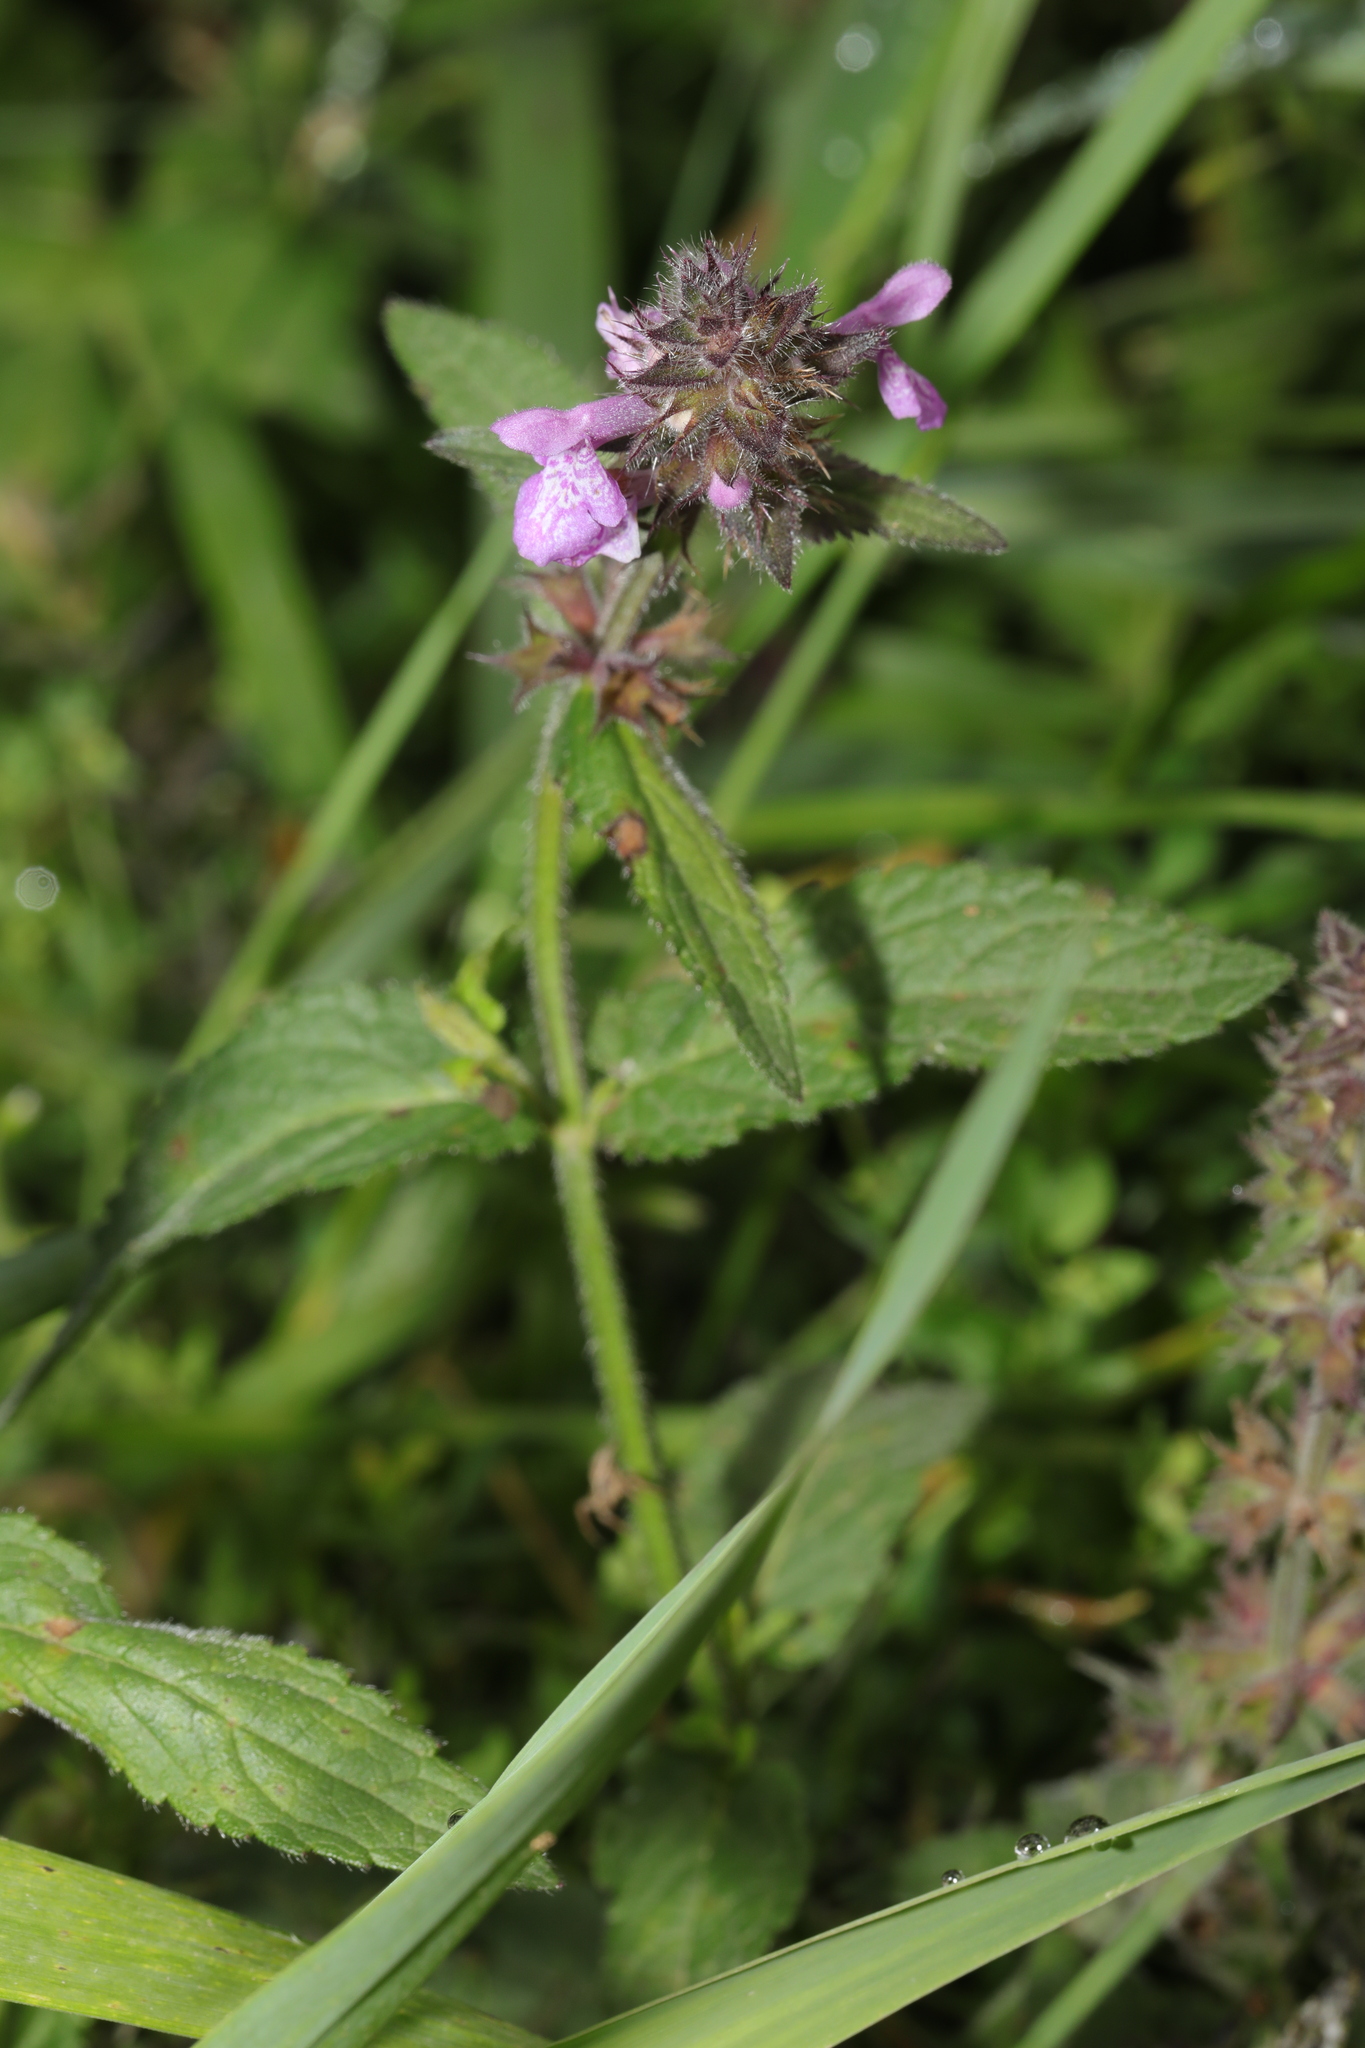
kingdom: Plantae
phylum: Tracheophyta
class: Magnoliopsida
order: Lamiales
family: Lamiaceae
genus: Stachys
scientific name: Stachys palustris
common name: Marsh woundwort
